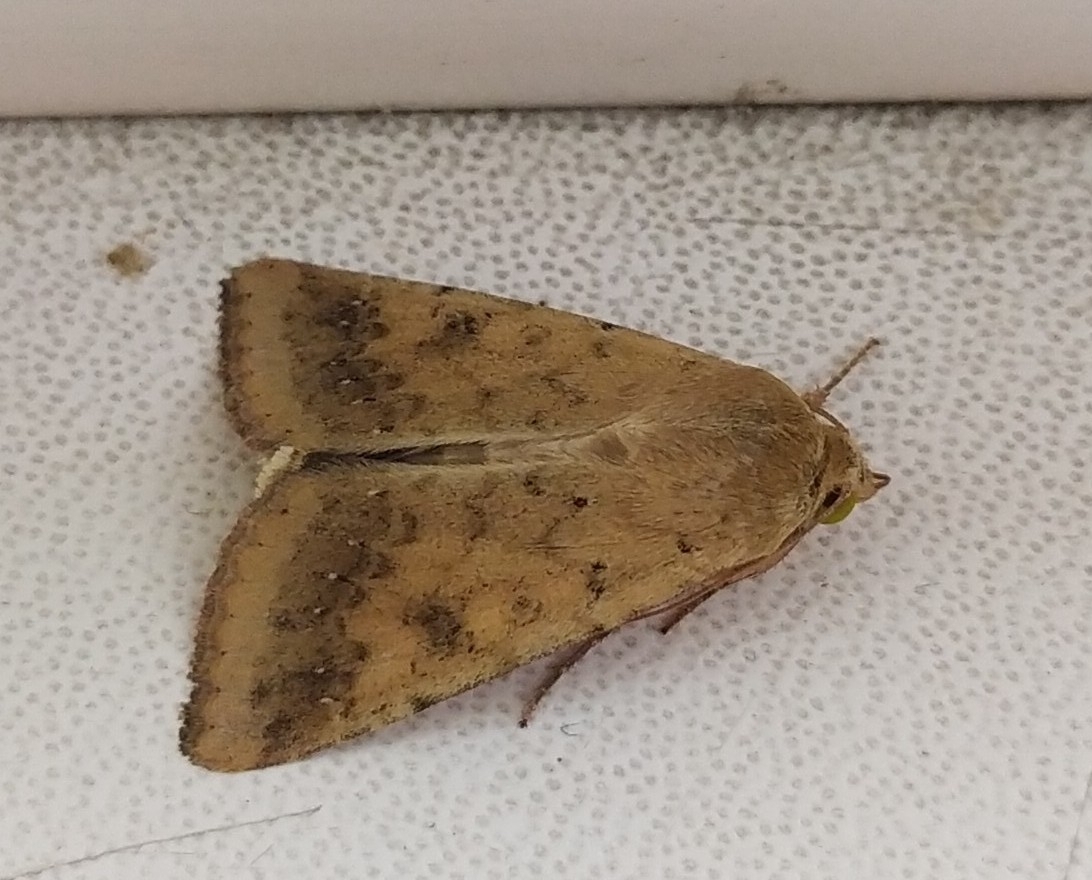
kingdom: Animalia
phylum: Arthropoda
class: Insecta
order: Lepidoptera
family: Noctuidae
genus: Helicoverpa
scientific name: Helicoverpa armigera
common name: Cotton bollworm
